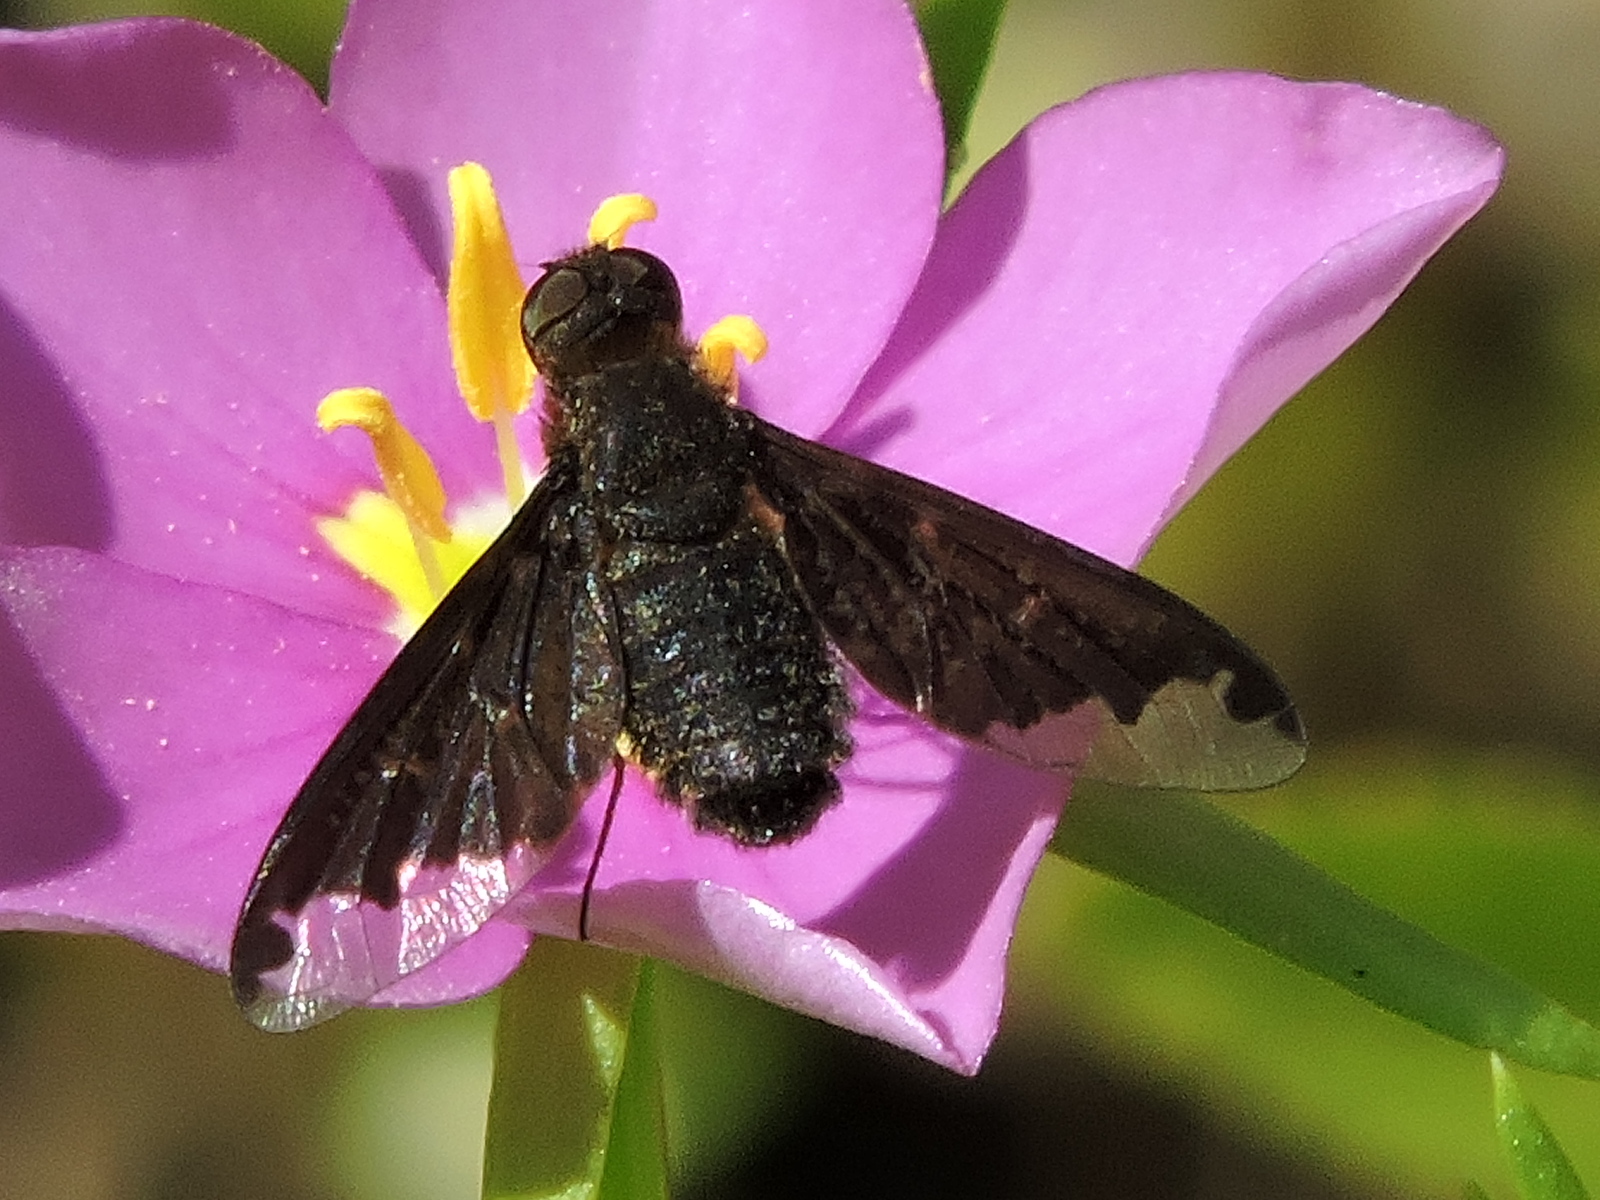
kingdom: Animalia
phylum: Arthropoda
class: Insecta
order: Diptera
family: Bombyliidae
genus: Hemipenthes
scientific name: Hemipenthes sinuosus
